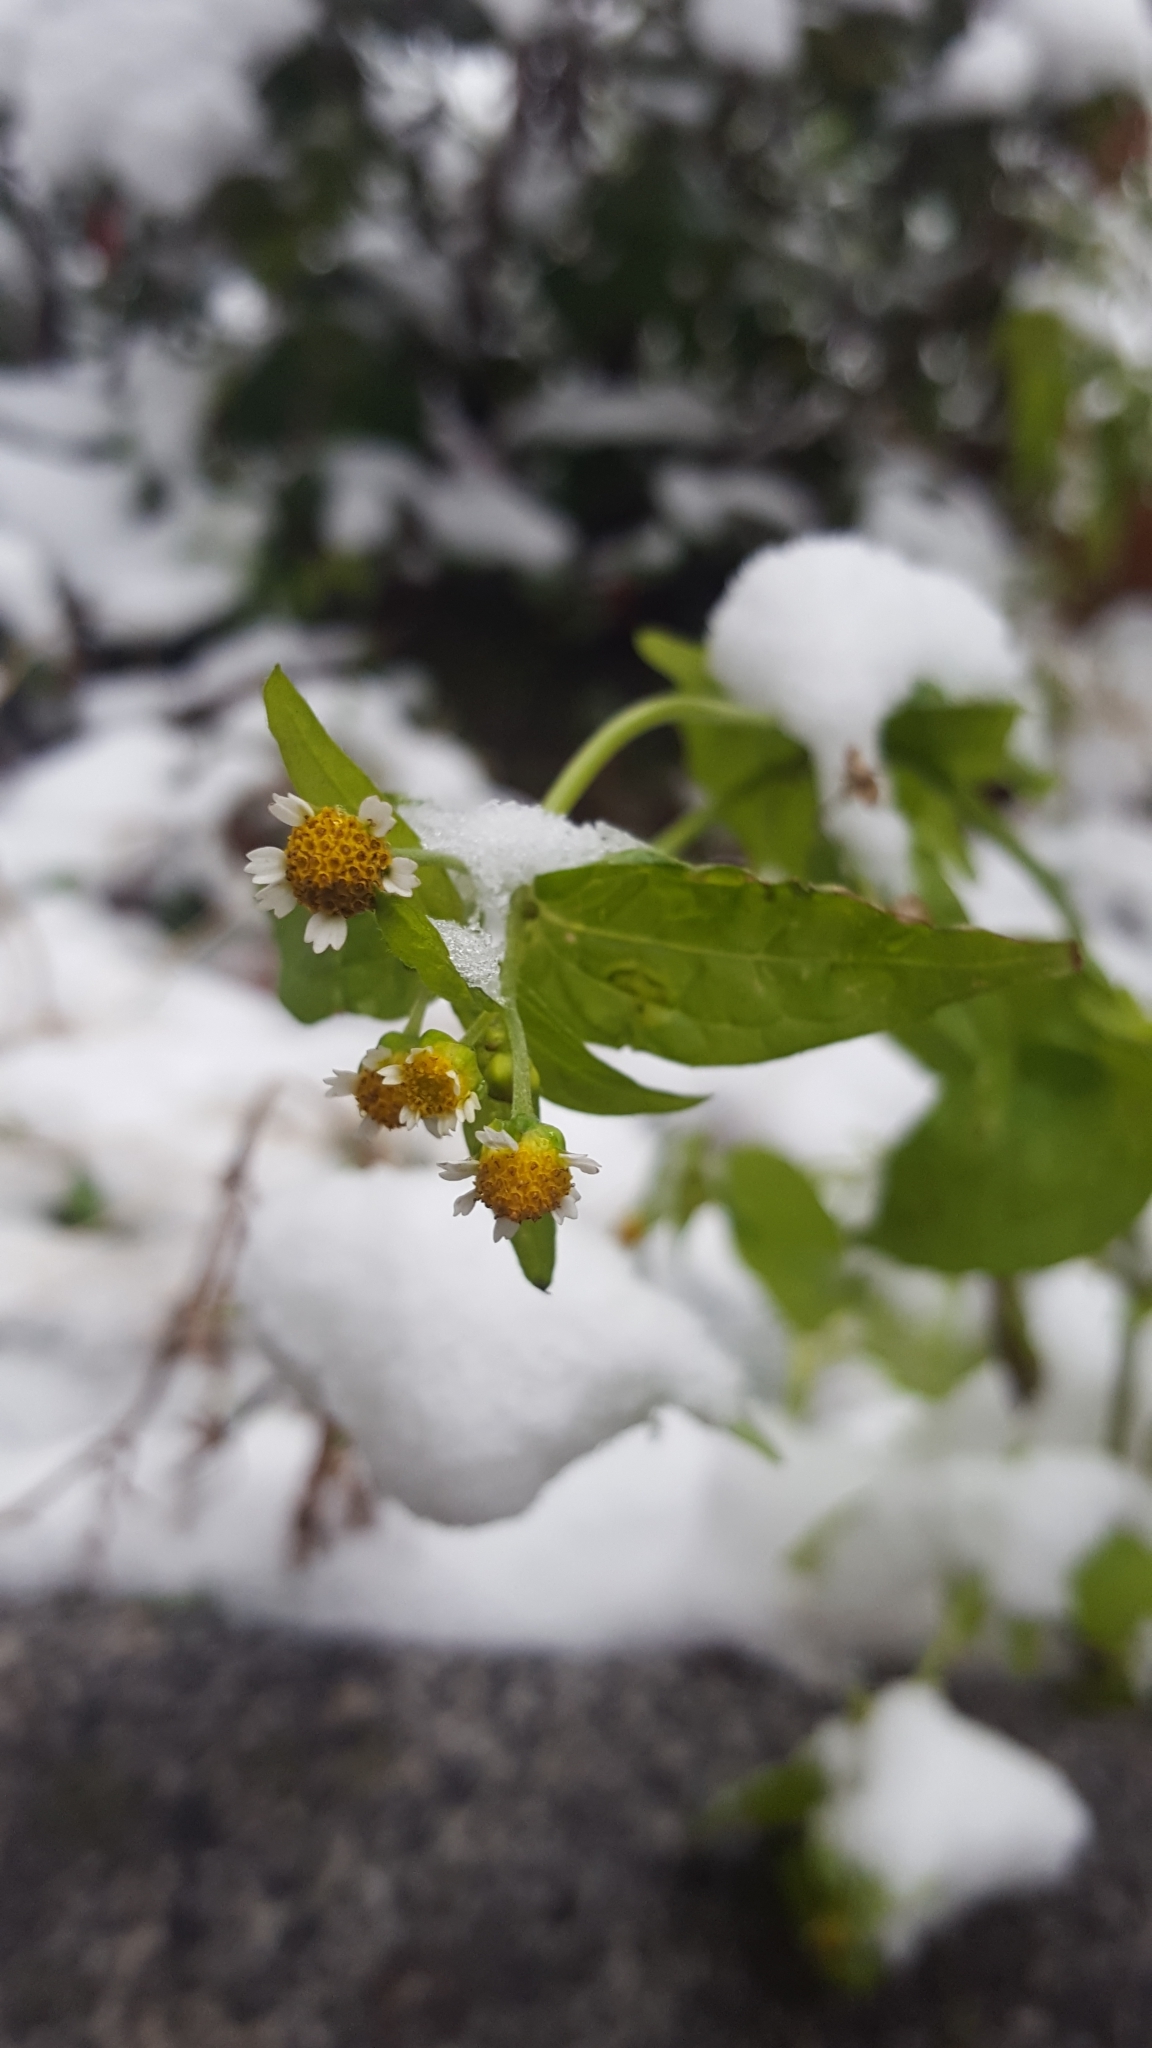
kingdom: Plantae
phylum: Tracheophyta
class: Magnoliopsida
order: Asterales
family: Asteraceae
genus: Galinsoga
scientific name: Galinsoga parviflora
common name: Gallant soldier
